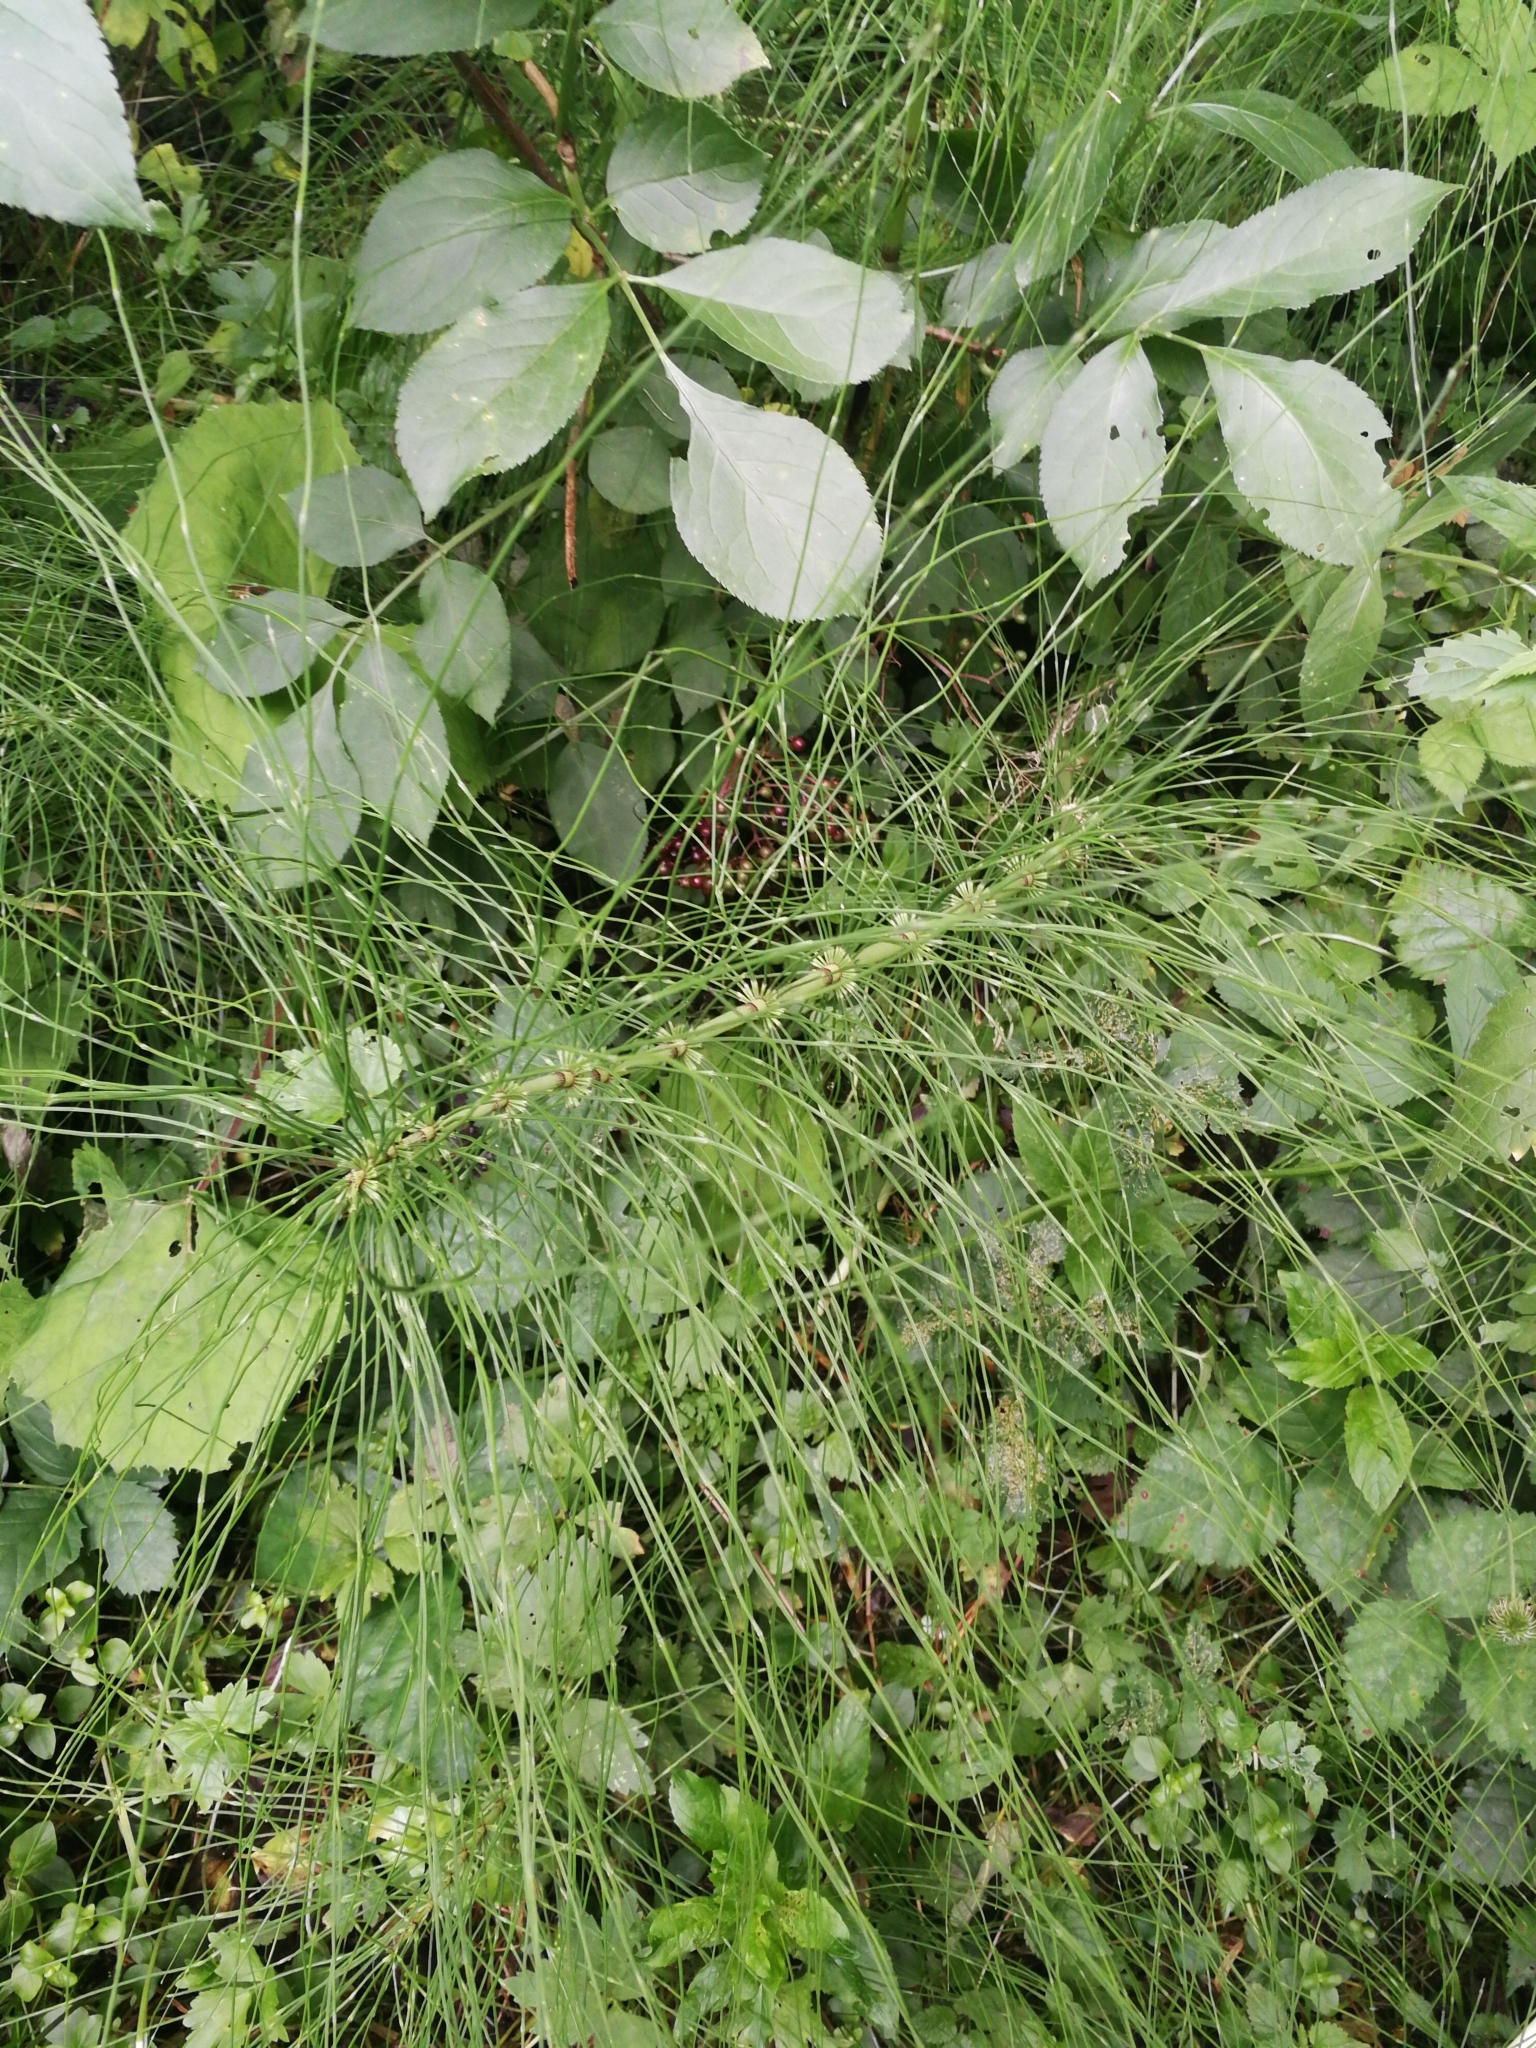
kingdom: Plantae
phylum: Tracheophyta
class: Polypodiopsida
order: Equisetales
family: Equisetaceae
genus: Equisetum
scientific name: Equisetum telmateia
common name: Great horsetail
